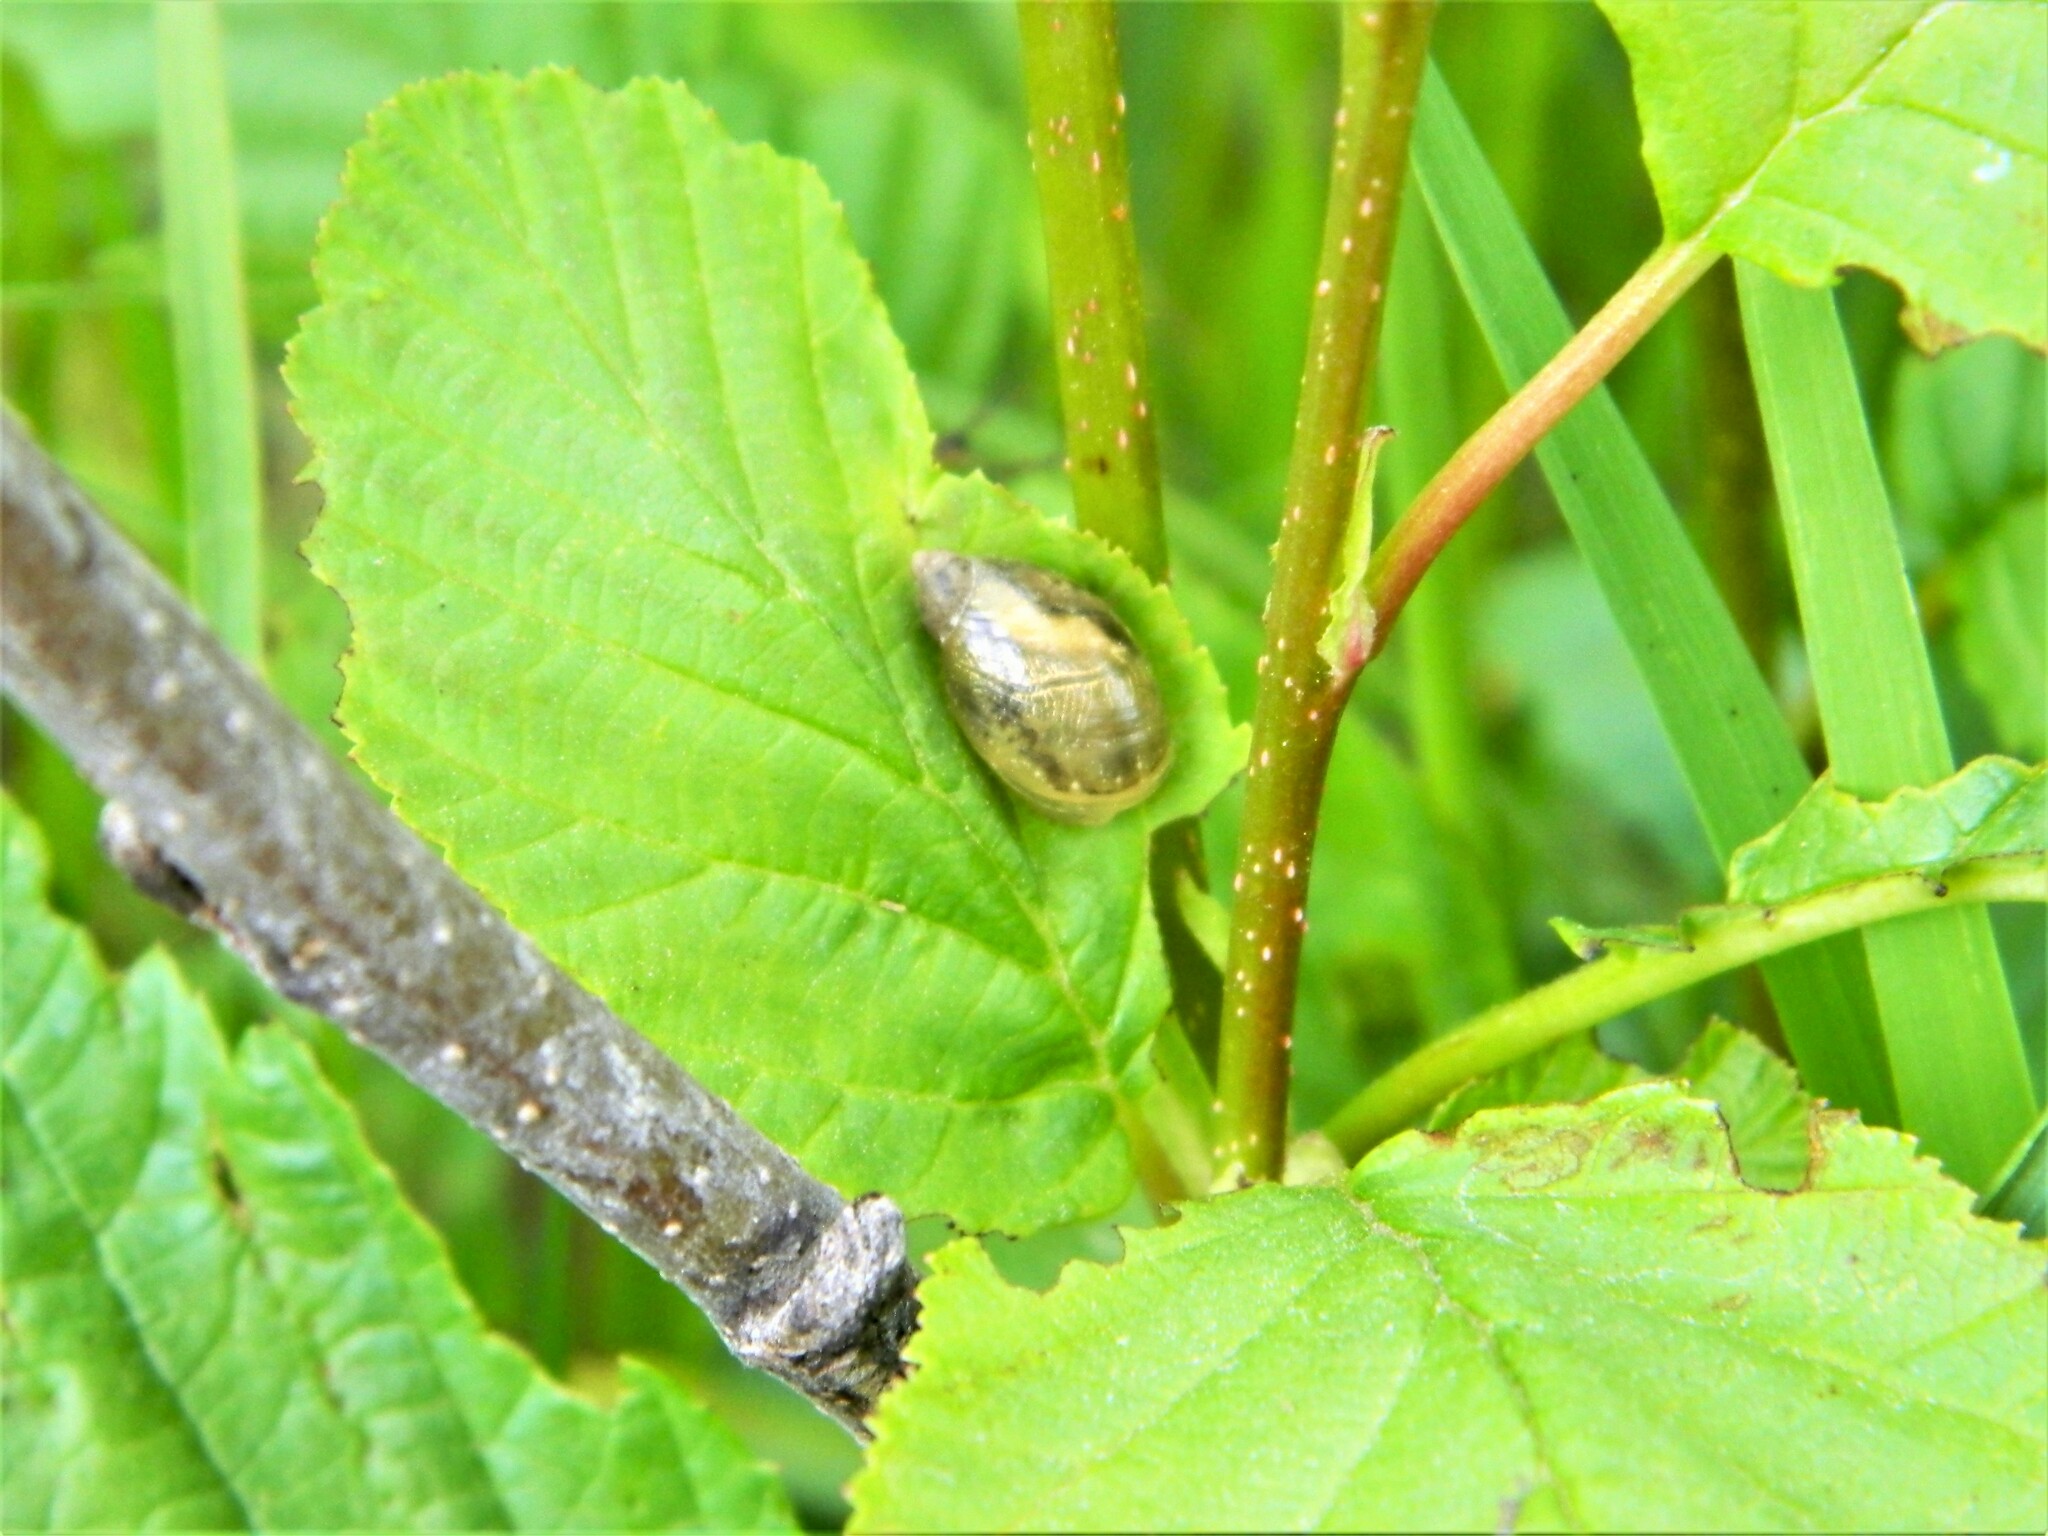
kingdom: Animalia
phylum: Mollusca
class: Gastropoda
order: Stylommatophora
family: Succineidae
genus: Succinea
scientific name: Succinea putris
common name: European ambersnail
